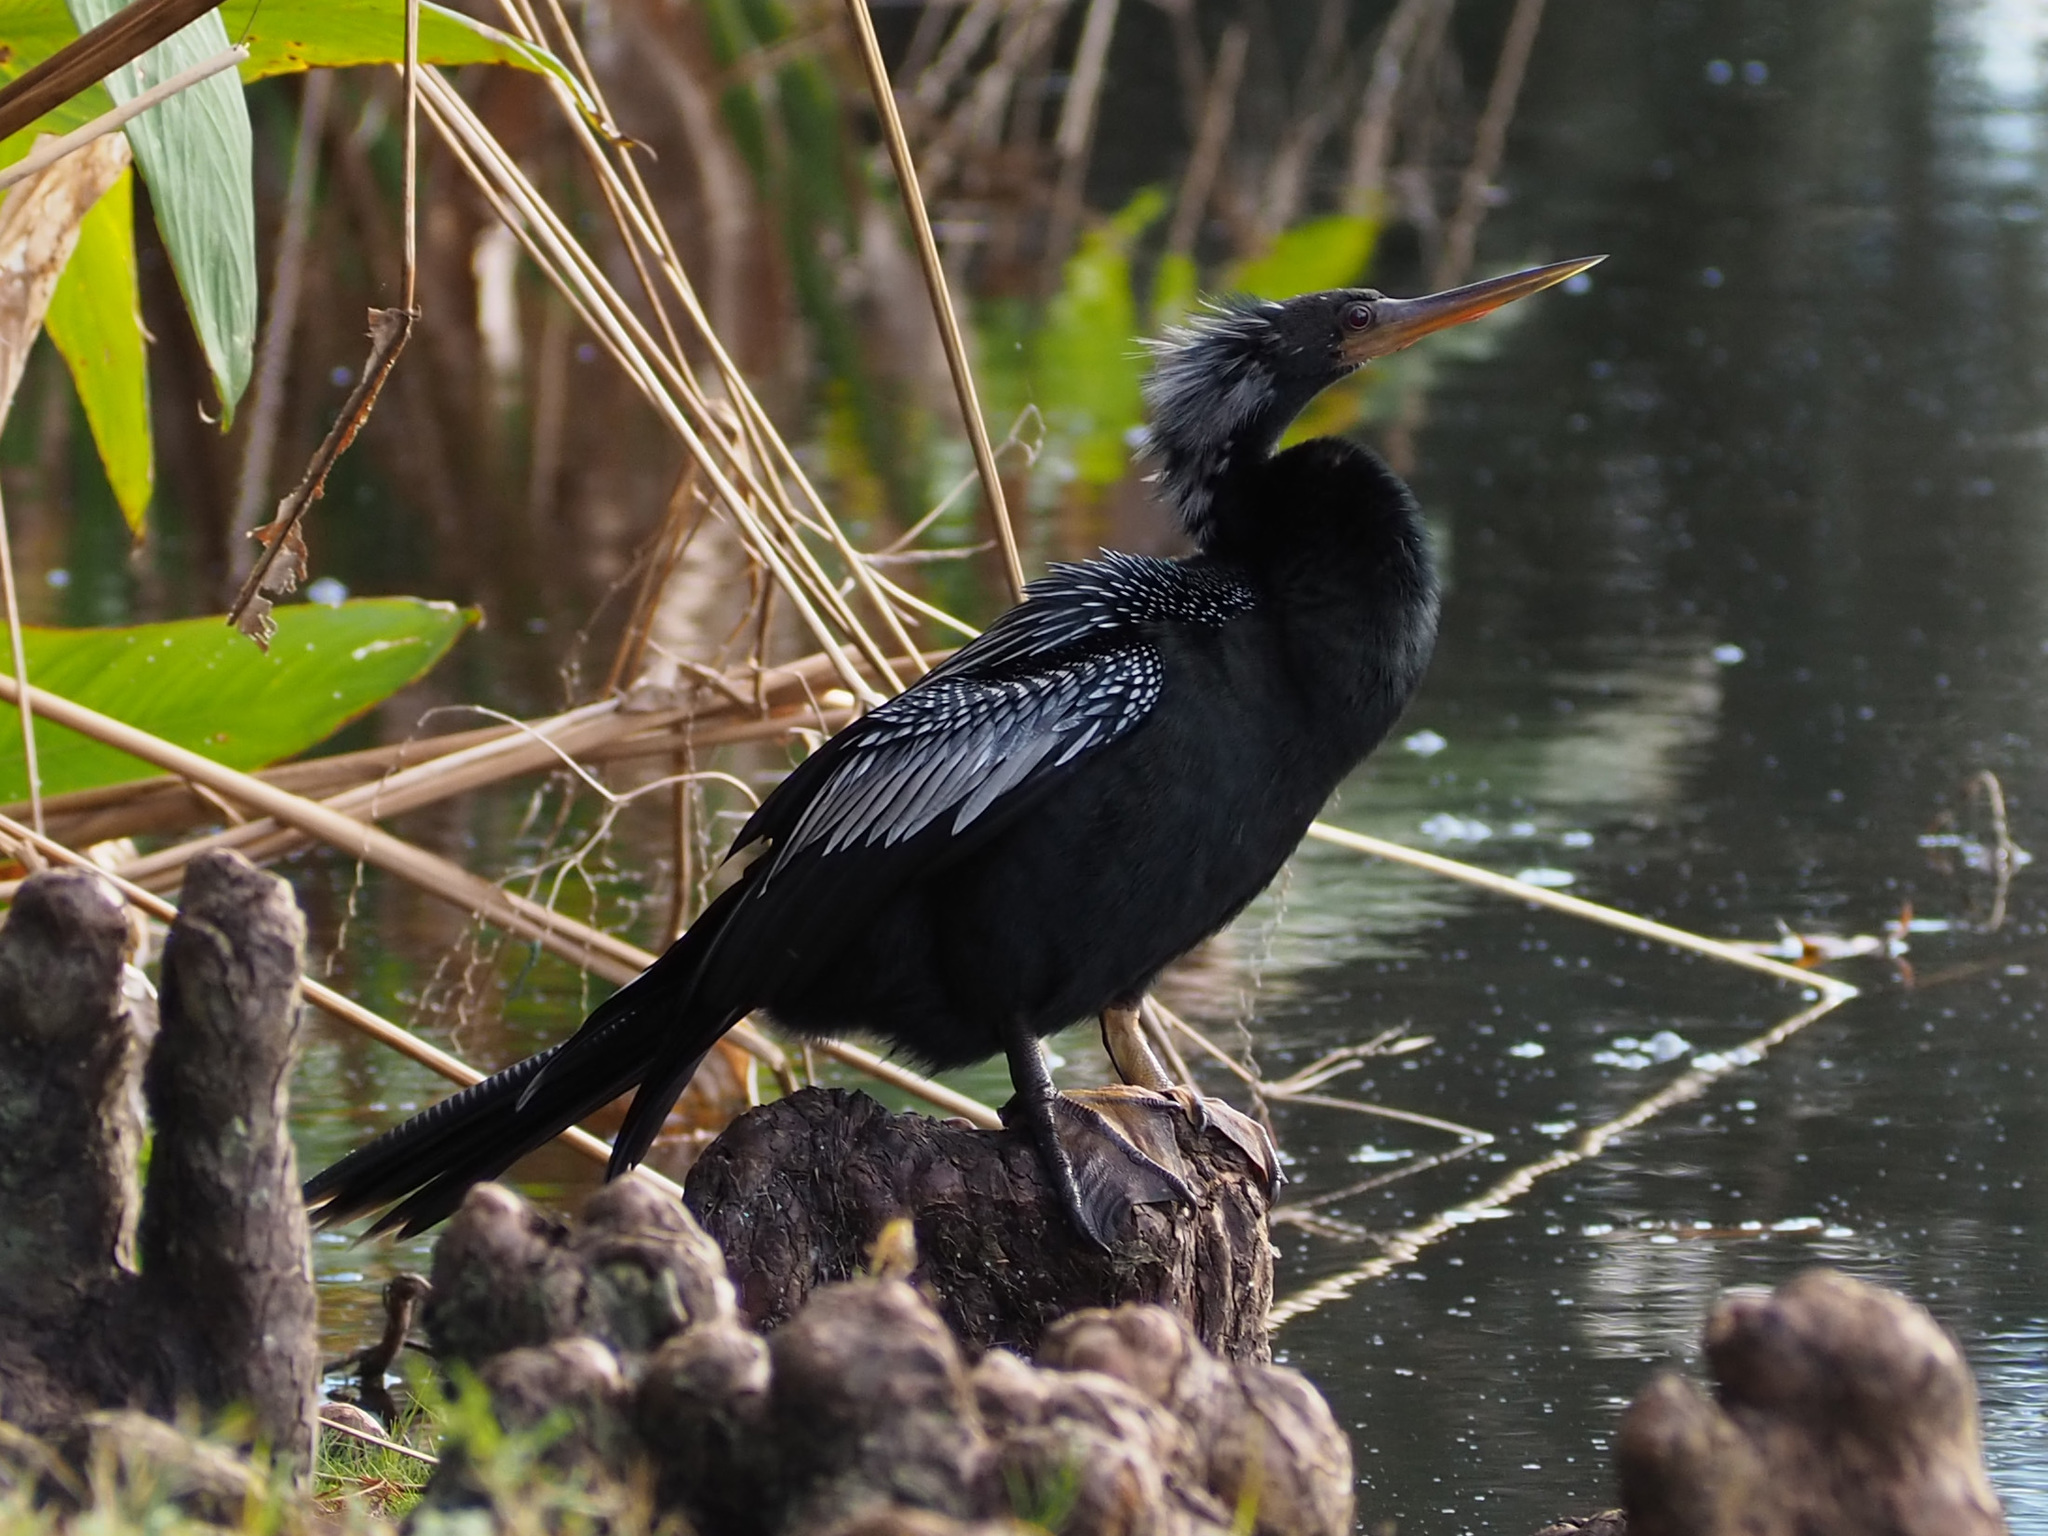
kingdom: Animalia
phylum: Chordata
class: Aves
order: Suliformes
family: Anhingidae
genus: Anhinga
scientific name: Anhinga anhinga
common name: Anhinga
